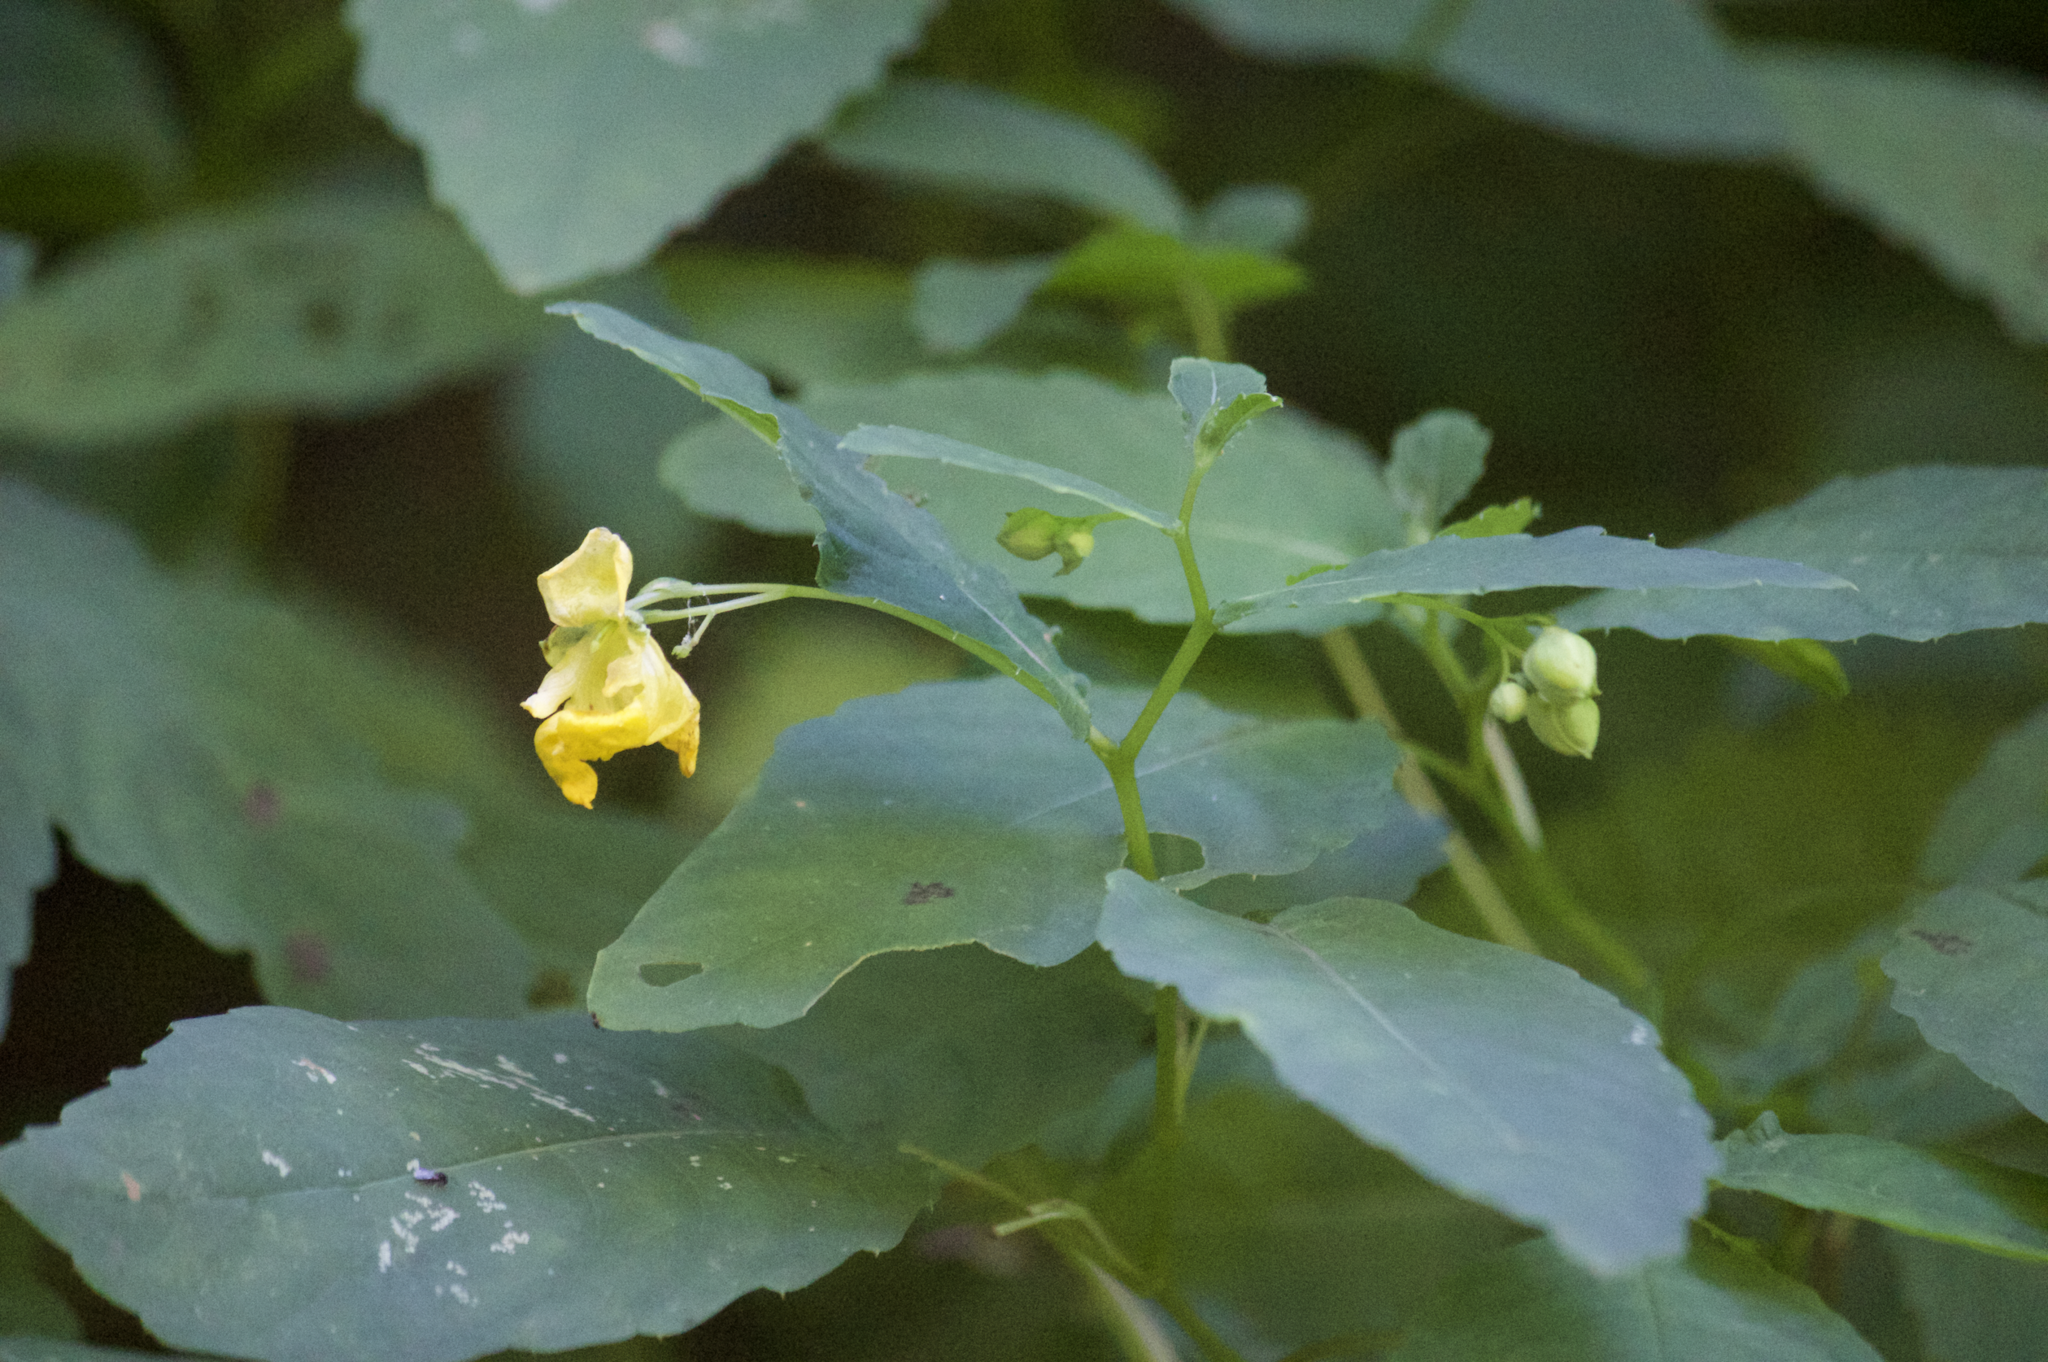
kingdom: Plantae
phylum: Tracheophyta
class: Magnoliopsida
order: Ericales
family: Balsaminaceae
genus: Impatiens
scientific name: Impatiens pallida
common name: Pale snapweed
